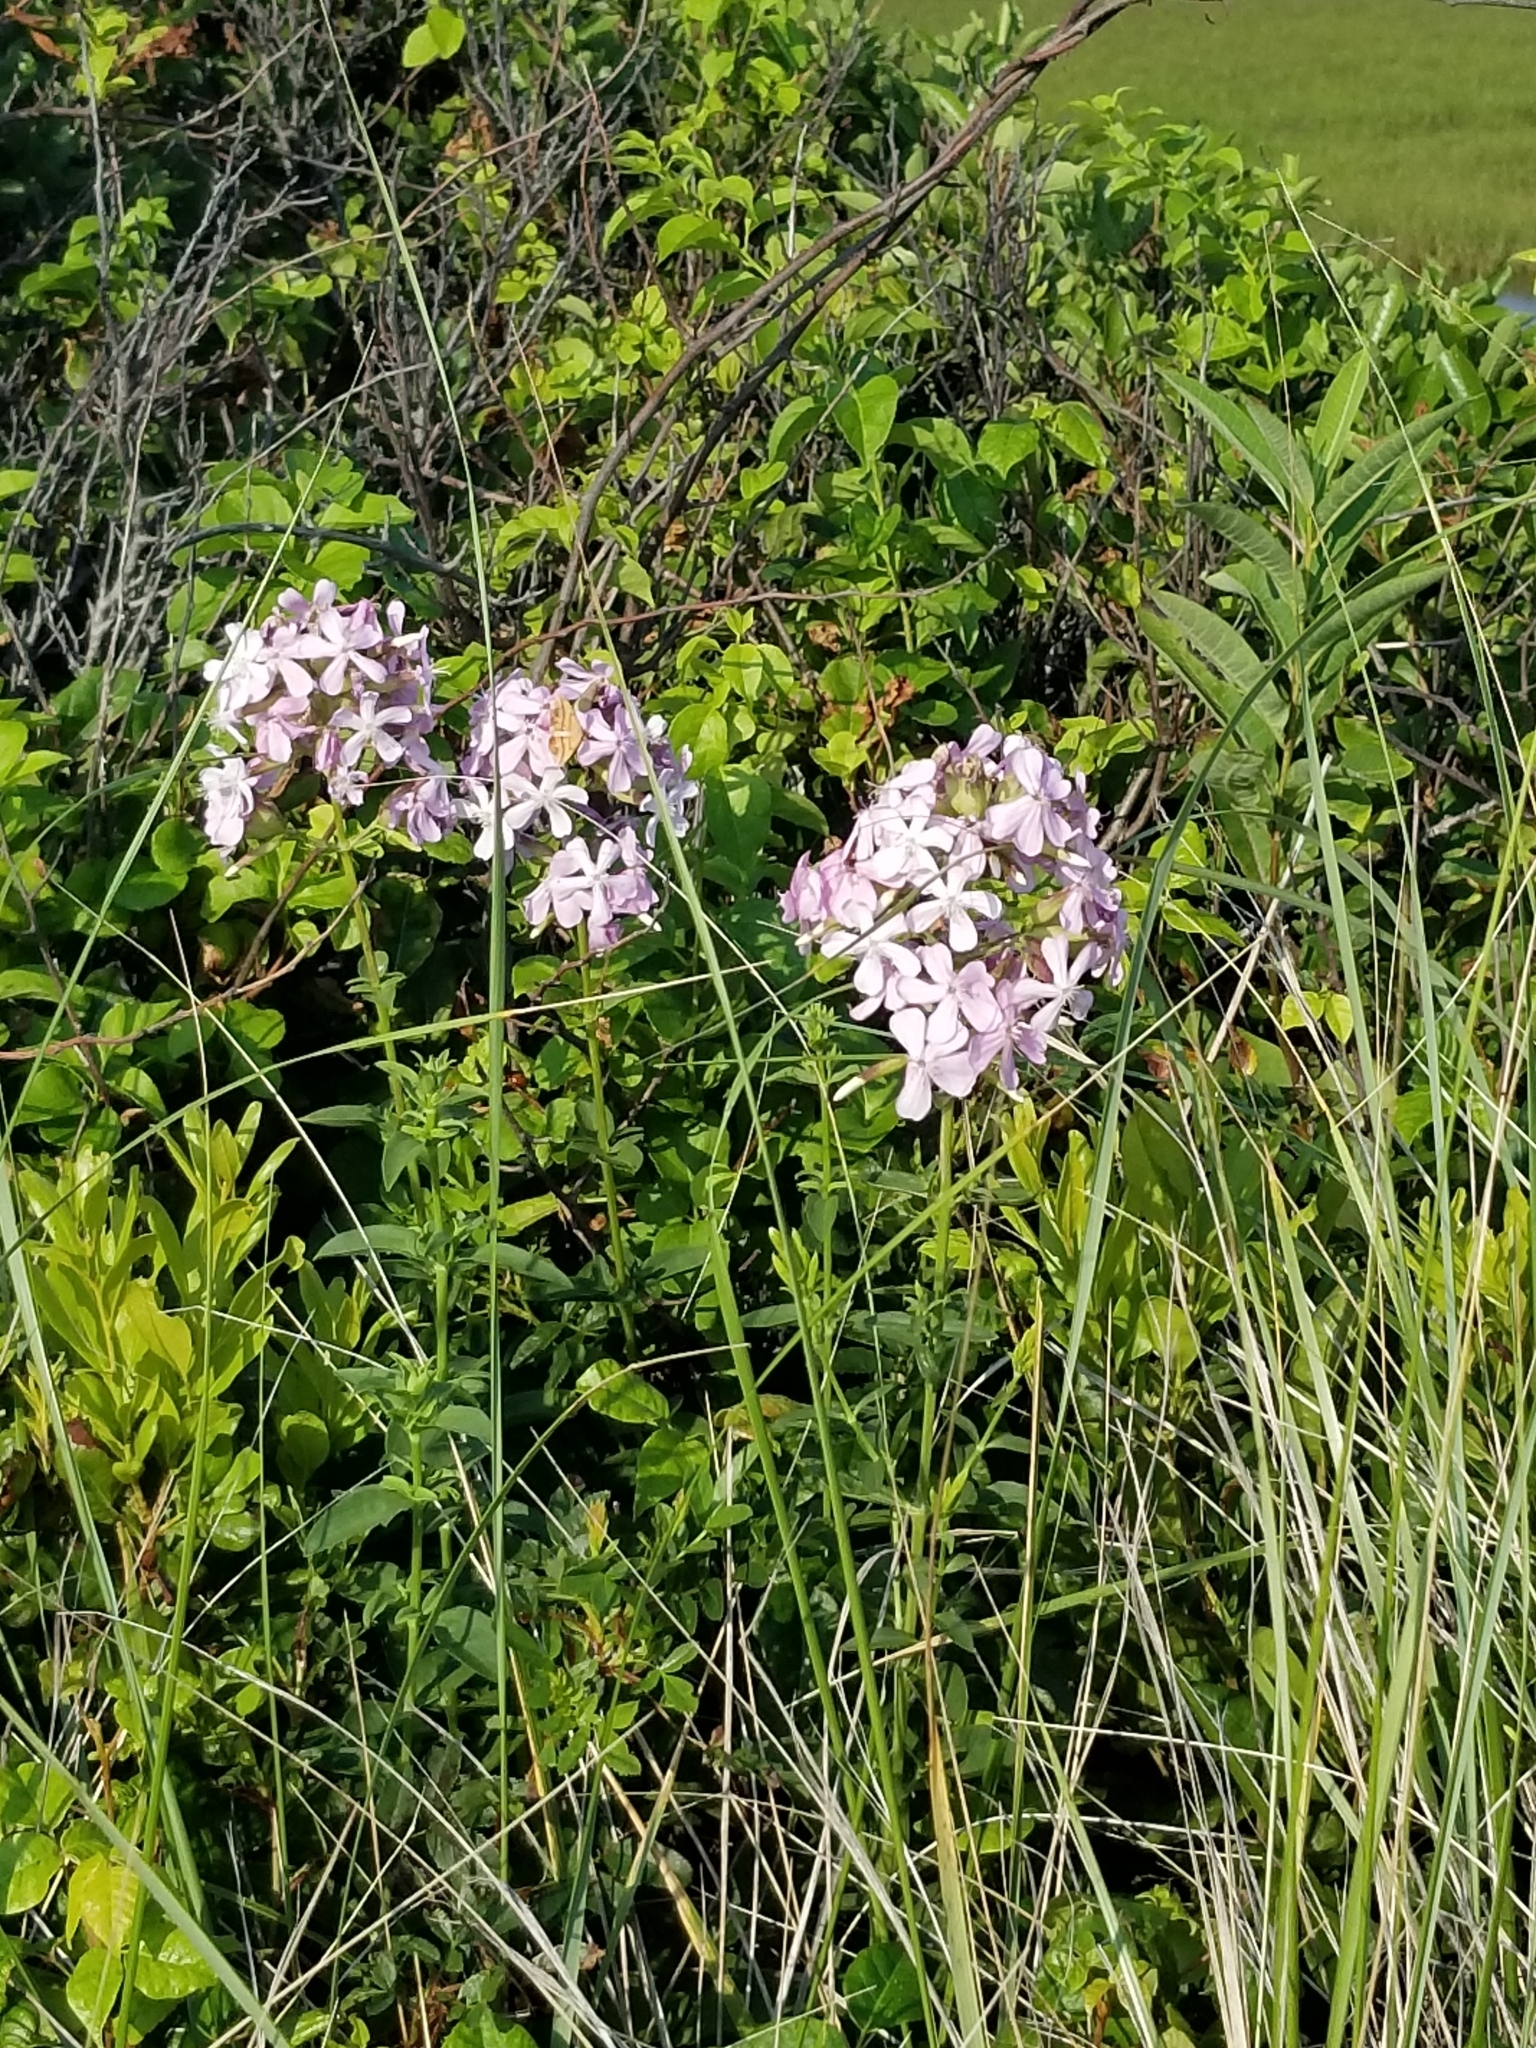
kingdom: Plantae
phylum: Tracheophyta
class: Magnoliopsida
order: Caryophyllales
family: Caryophyllaceae
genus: Saponaria
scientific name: Saponaria officinalis
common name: Soapwort
